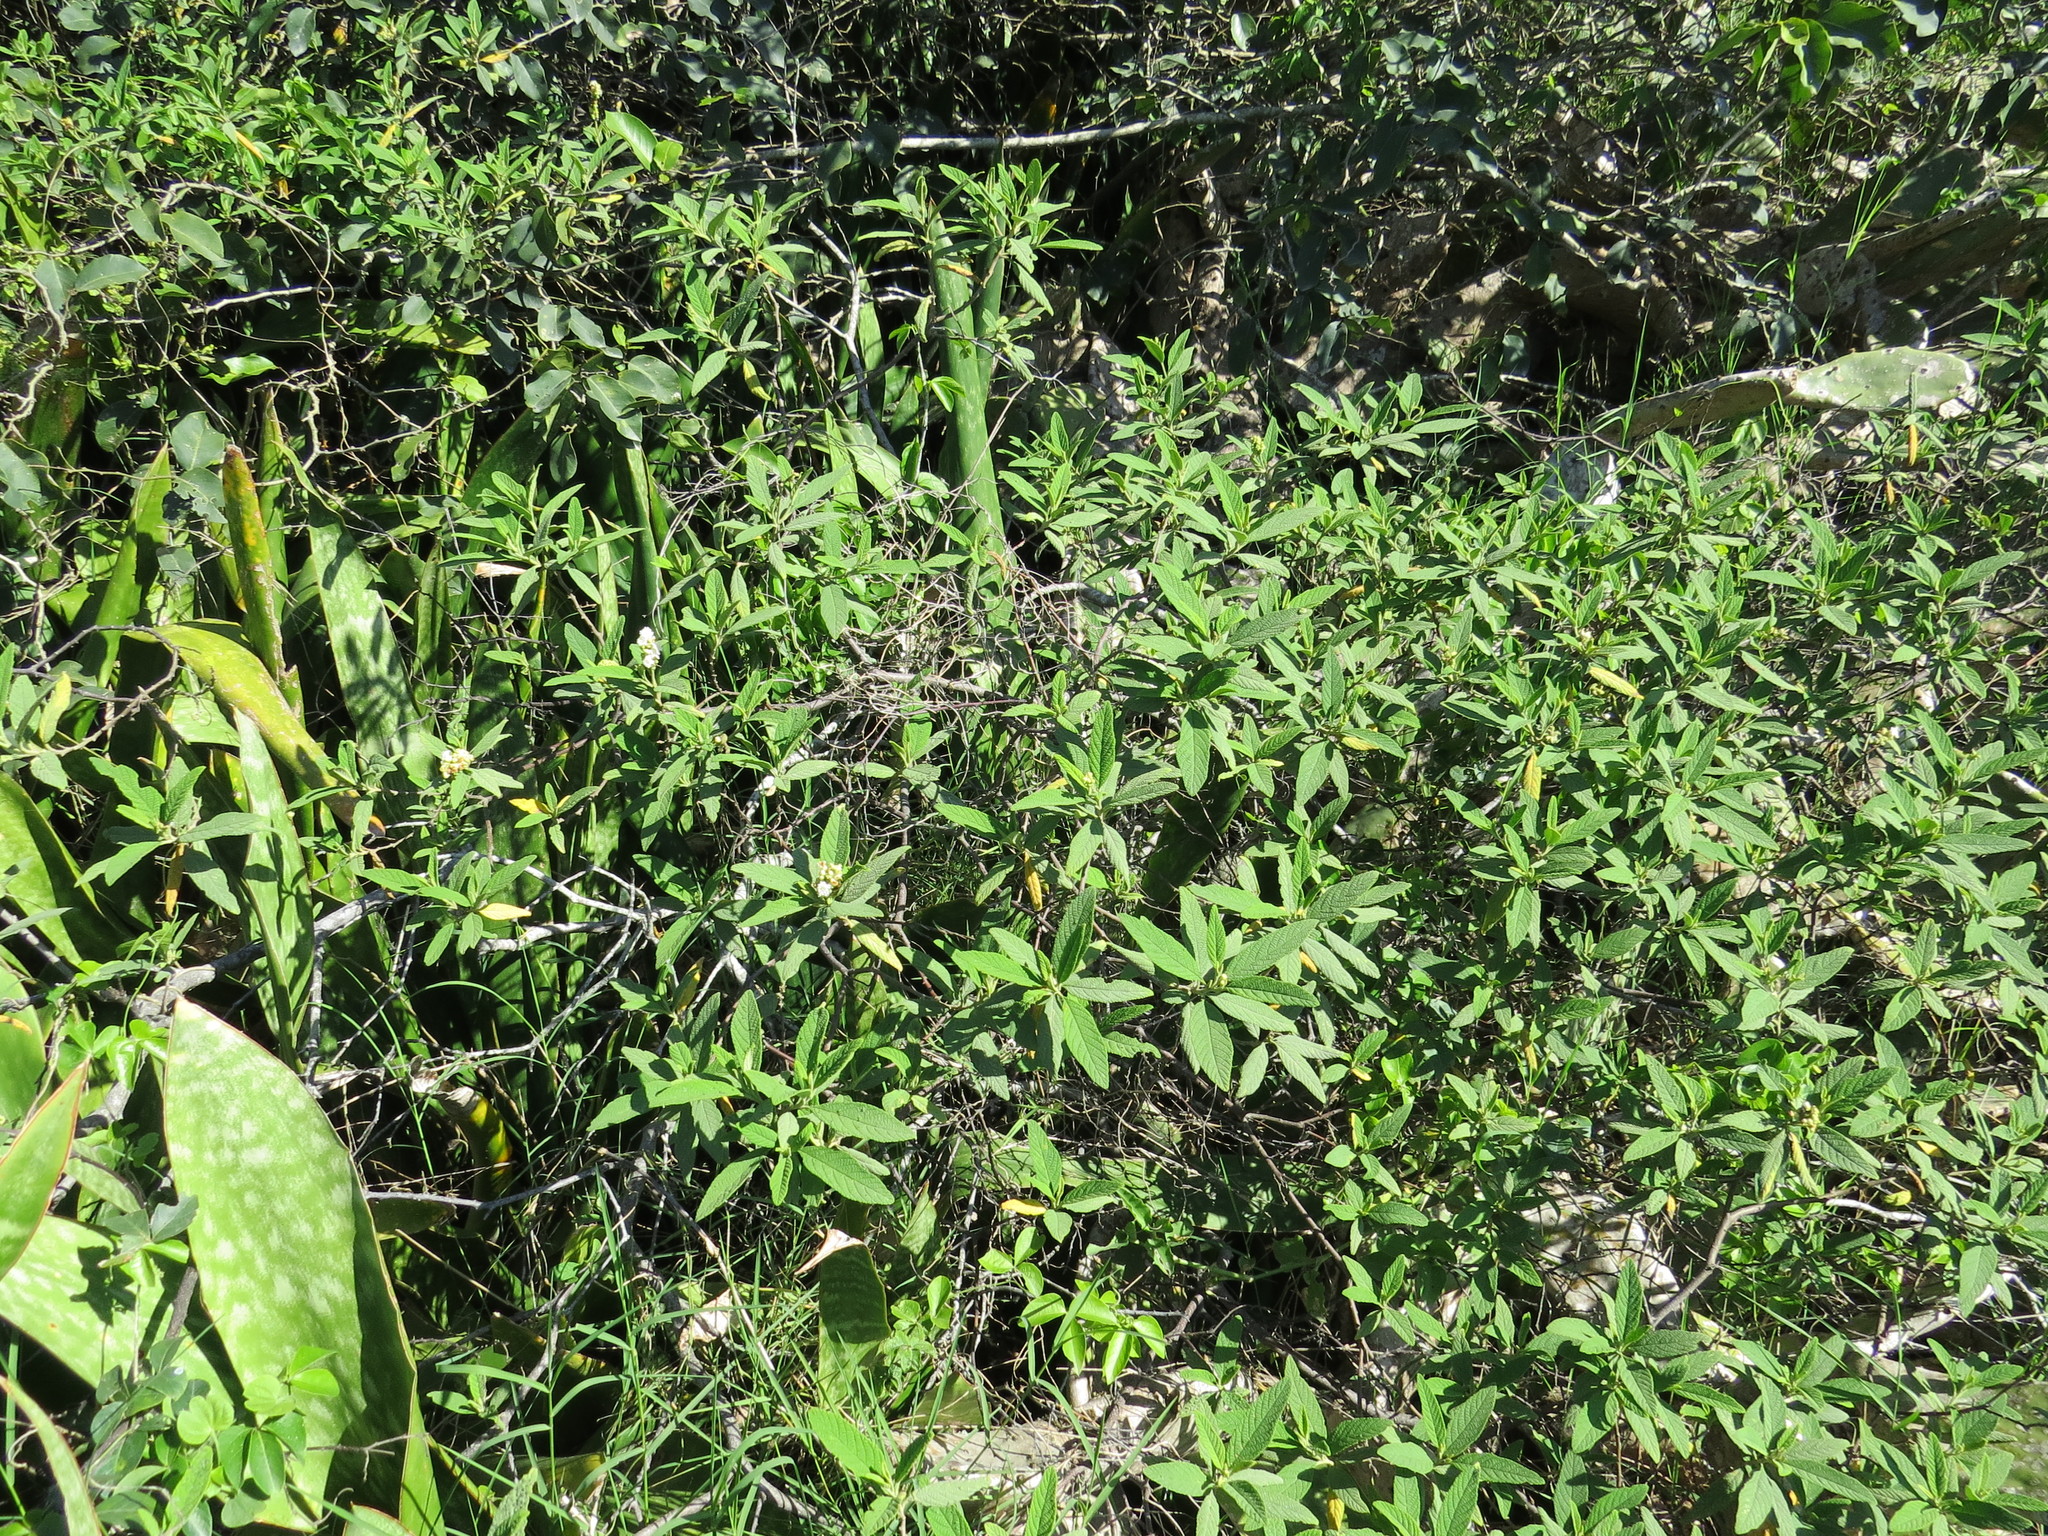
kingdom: Plantae
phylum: Tracheophyta
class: Magnoliopsida
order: Boraginales
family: Cordiaceae
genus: Varronia
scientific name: Varronia curassavica
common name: Black sage
